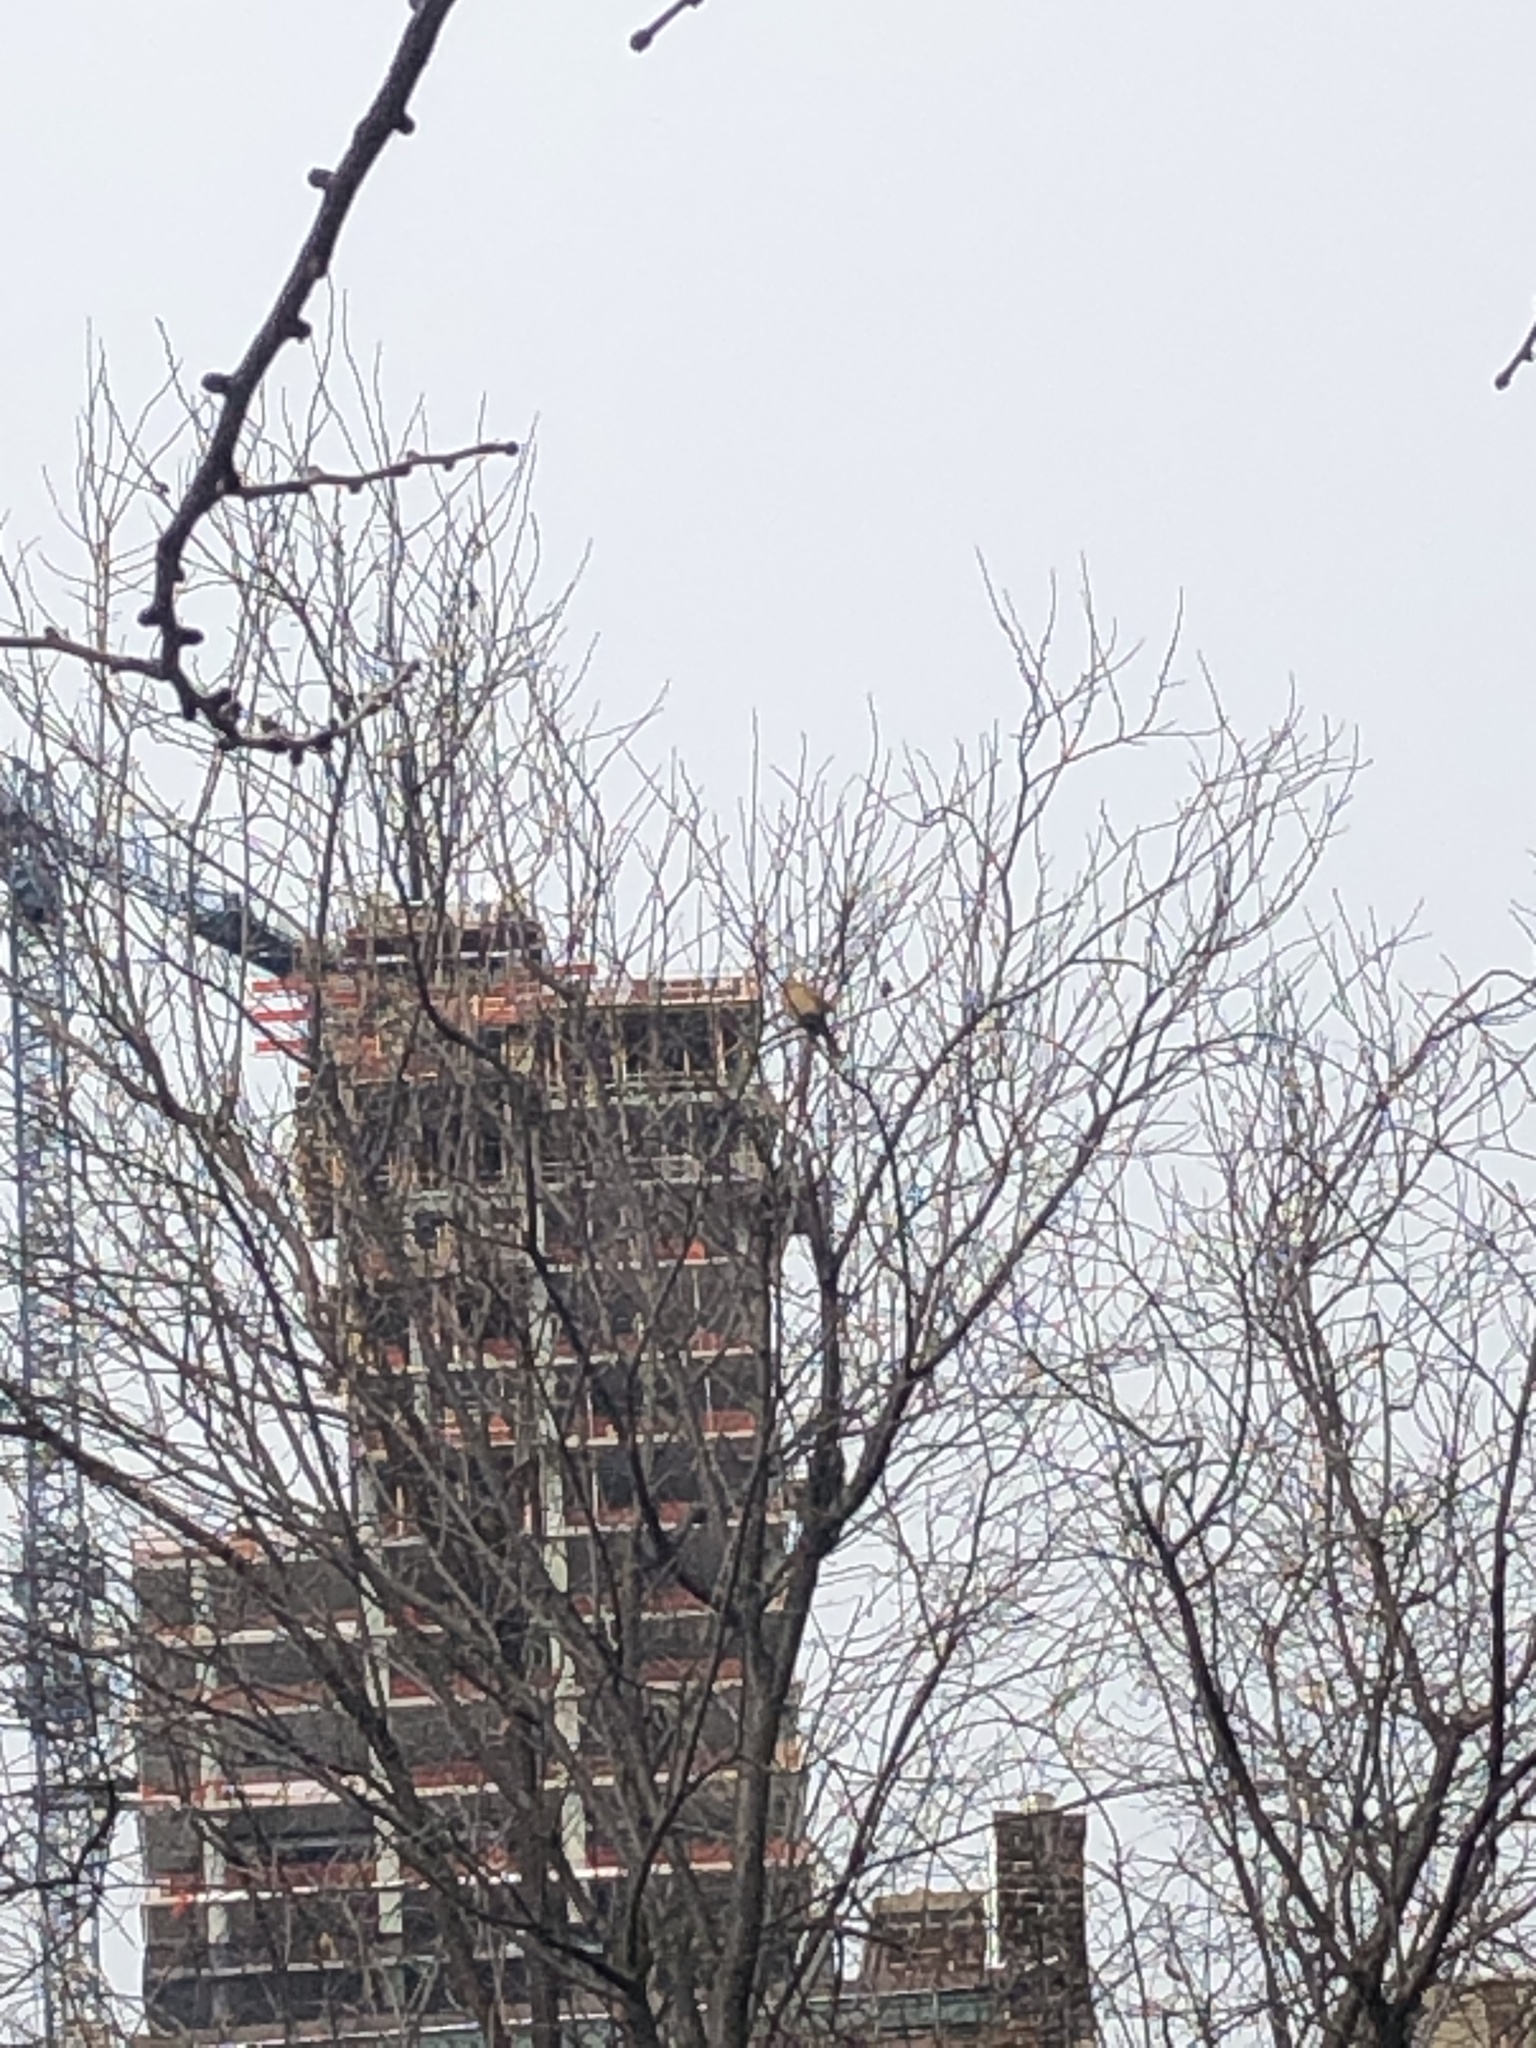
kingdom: Animalia
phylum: Chordata
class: Aves
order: Passeriformes
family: Cardinalidae
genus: Cardinalis
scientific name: Cardinalis cardinalis
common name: Northern cardinal
